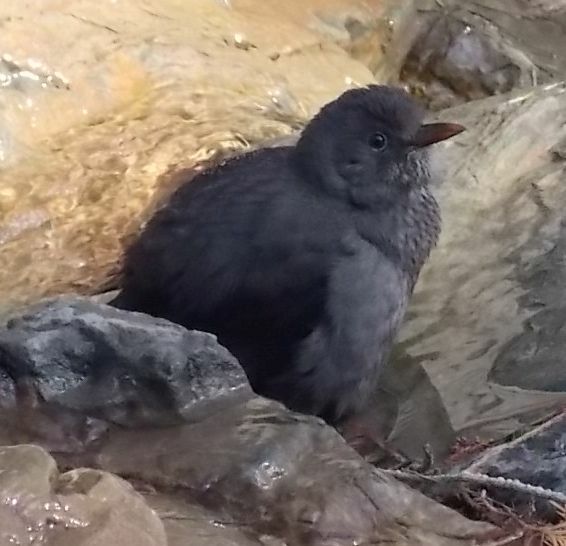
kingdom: Animalia
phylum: Chordata
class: Aves
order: Passeriformes
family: Turdidae
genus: Turdus
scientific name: Turdus merula
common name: Common blackbird
